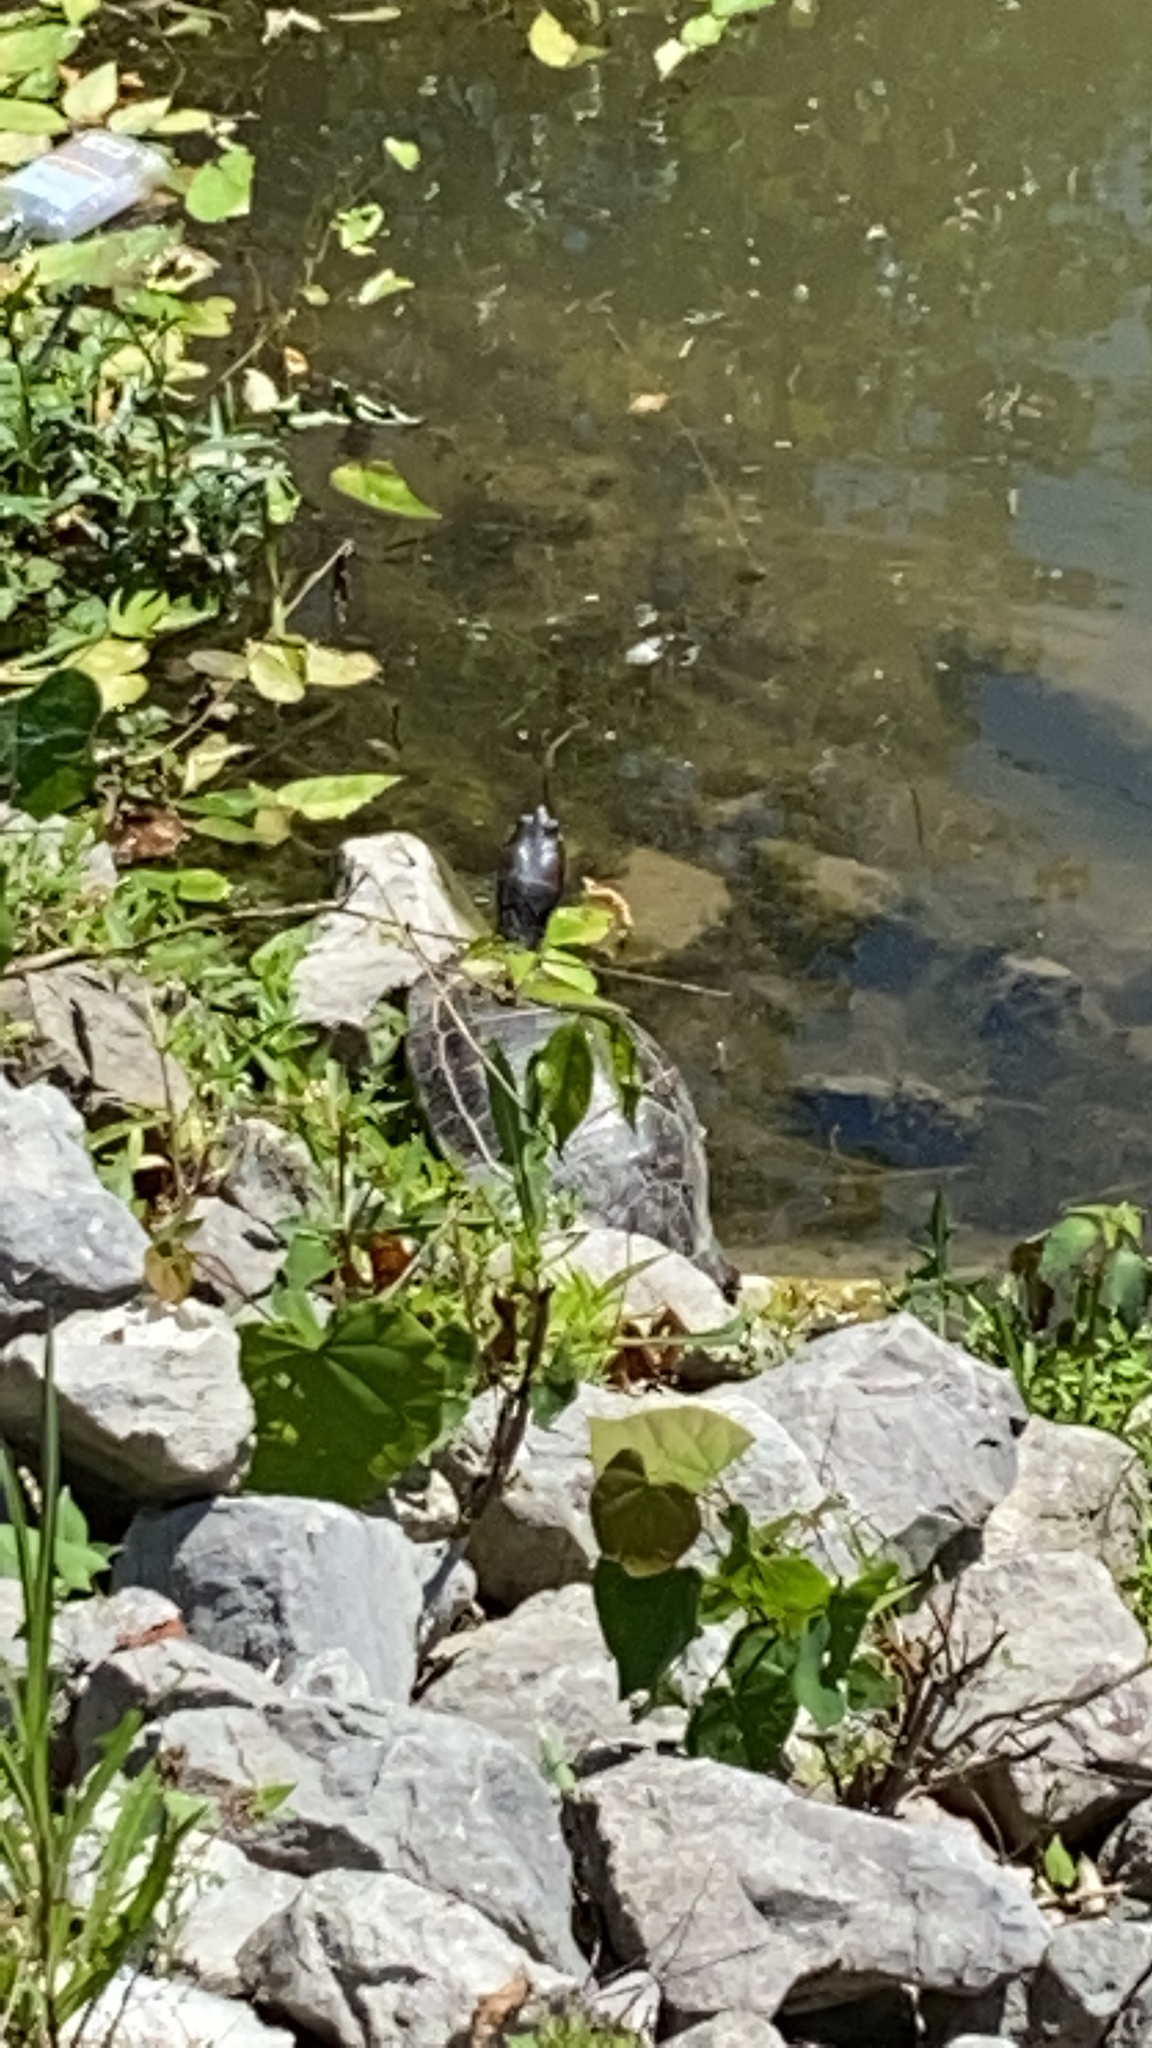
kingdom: Animalia
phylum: Chordata
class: Testudines
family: Emydidae
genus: Trachemys
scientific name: Trachemys scripta
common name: Slider
